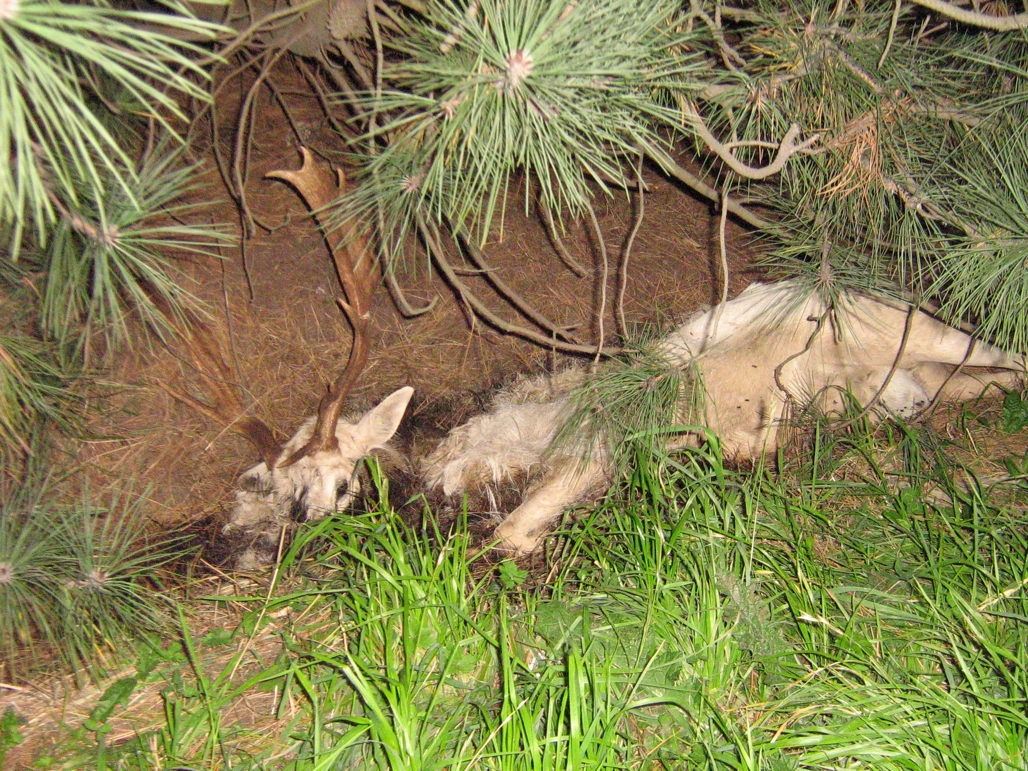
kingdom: Animalia
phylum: Chordata
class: Mammalia
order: Artiodactyla
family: Cervidae
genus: Dama
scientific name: Dama dama
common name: Fallow deer
